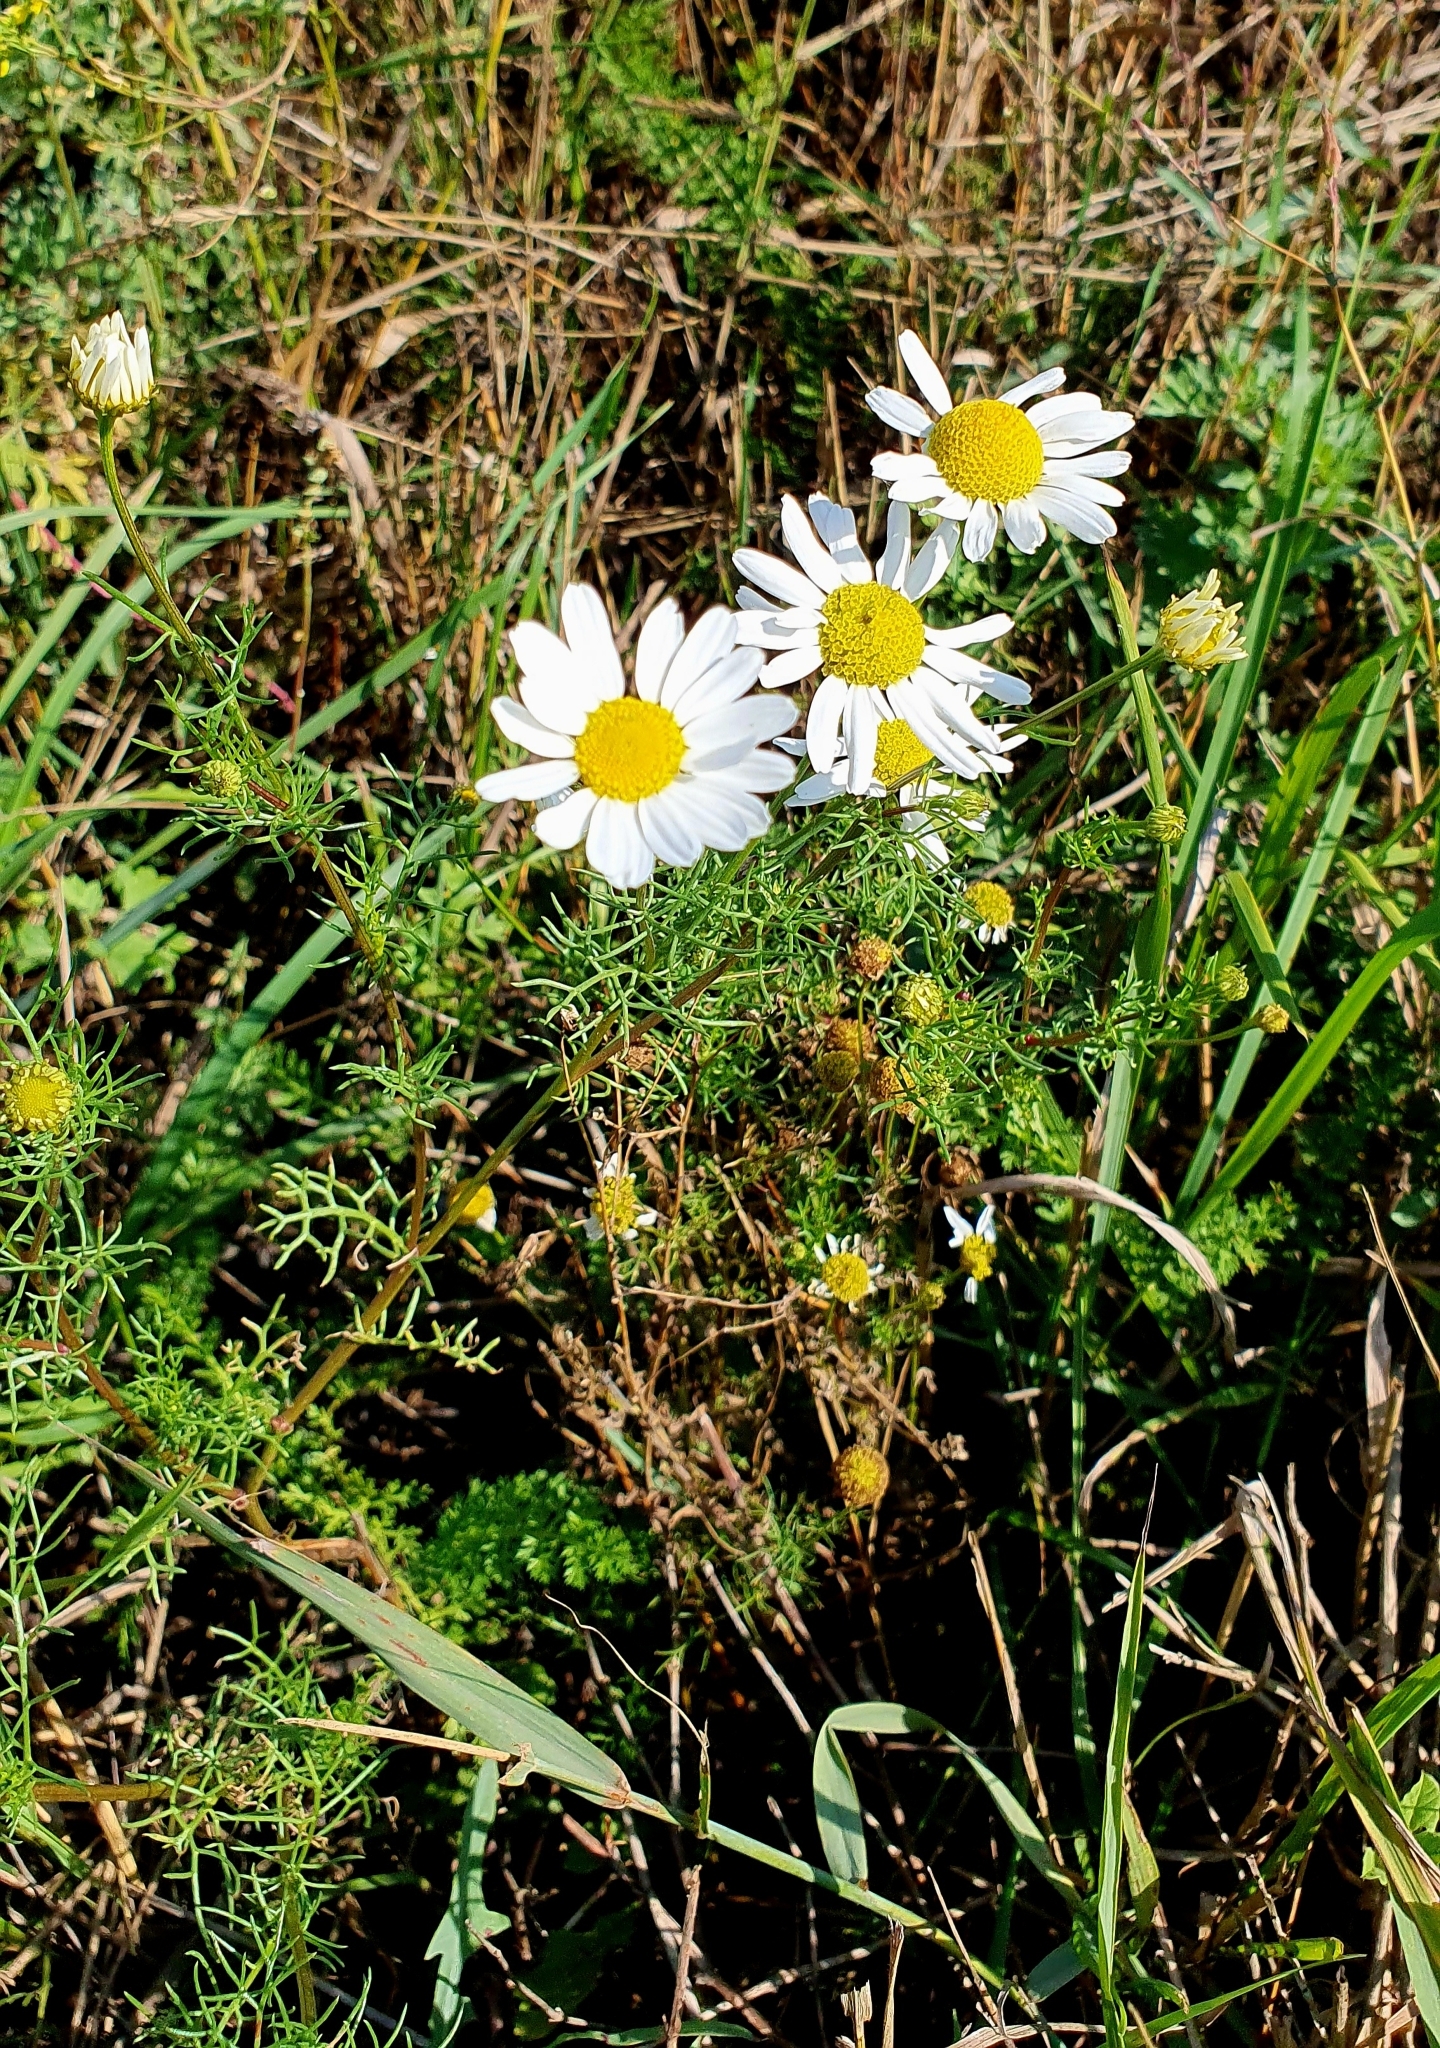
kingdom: Plantae
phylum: Tracheophyta
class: Magnoliopsida
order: Asterales
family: Asteraceae
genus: Tripleurospermum
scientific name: Tripleurospermum inodorum
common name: Scentless mayweed
